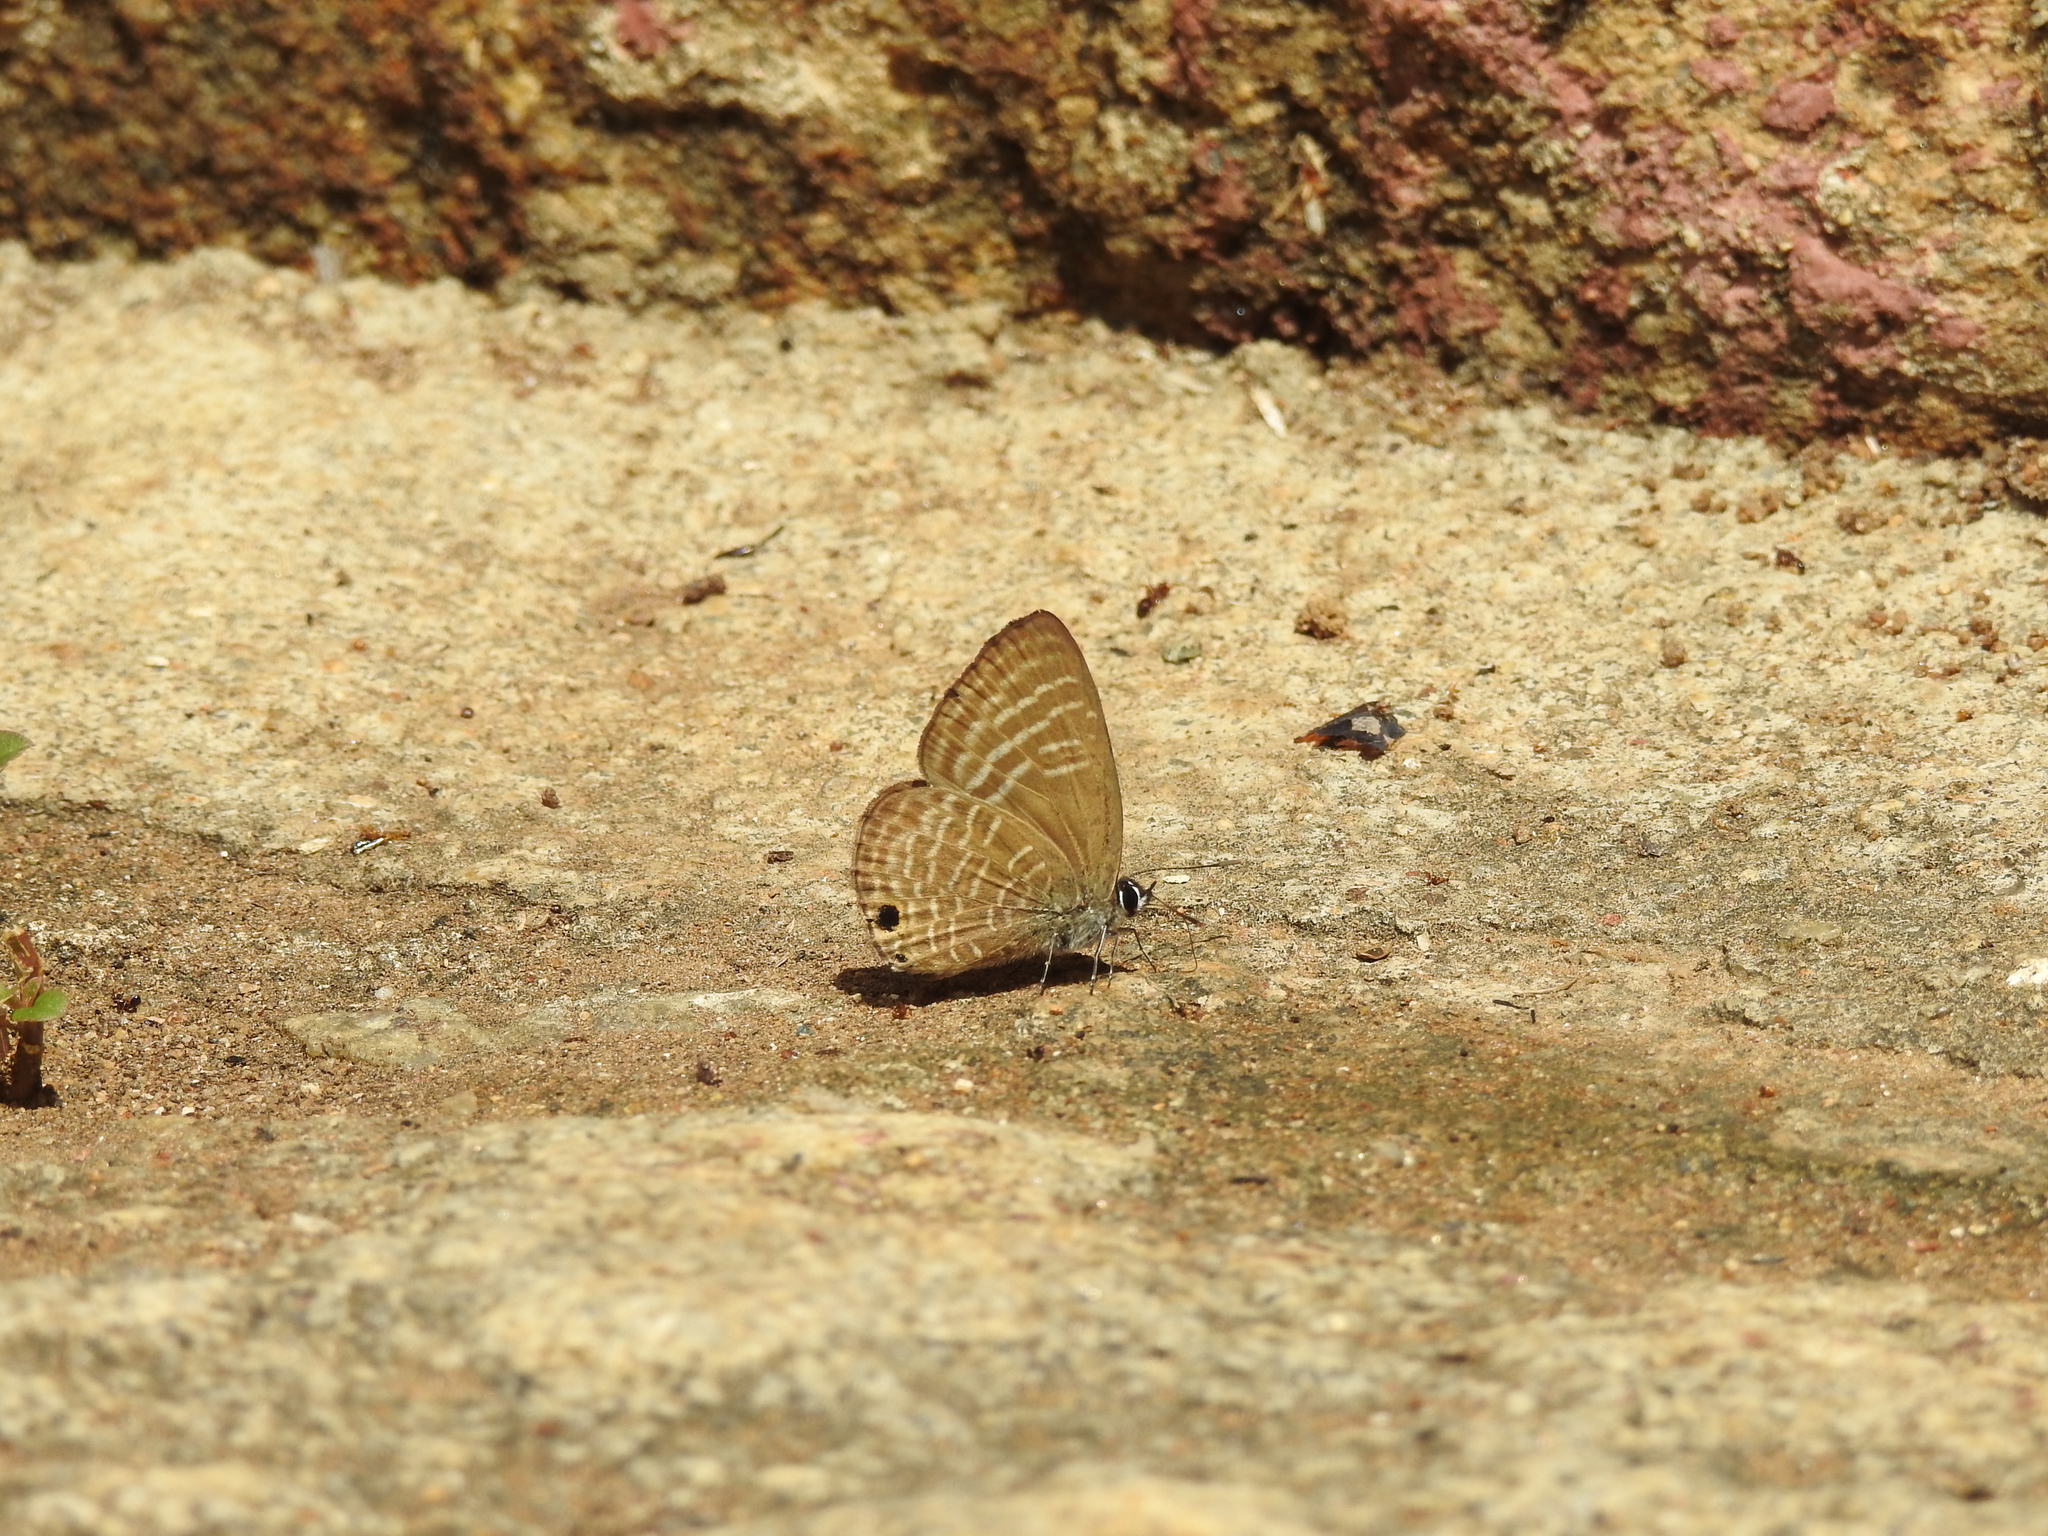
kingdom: Animalia
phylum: Arthropoda
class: Insecta
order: Lepidoptera
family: Lycaenidae
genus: Nacaduba
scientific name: Nacaduba pactolus
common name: Large fourline blue
